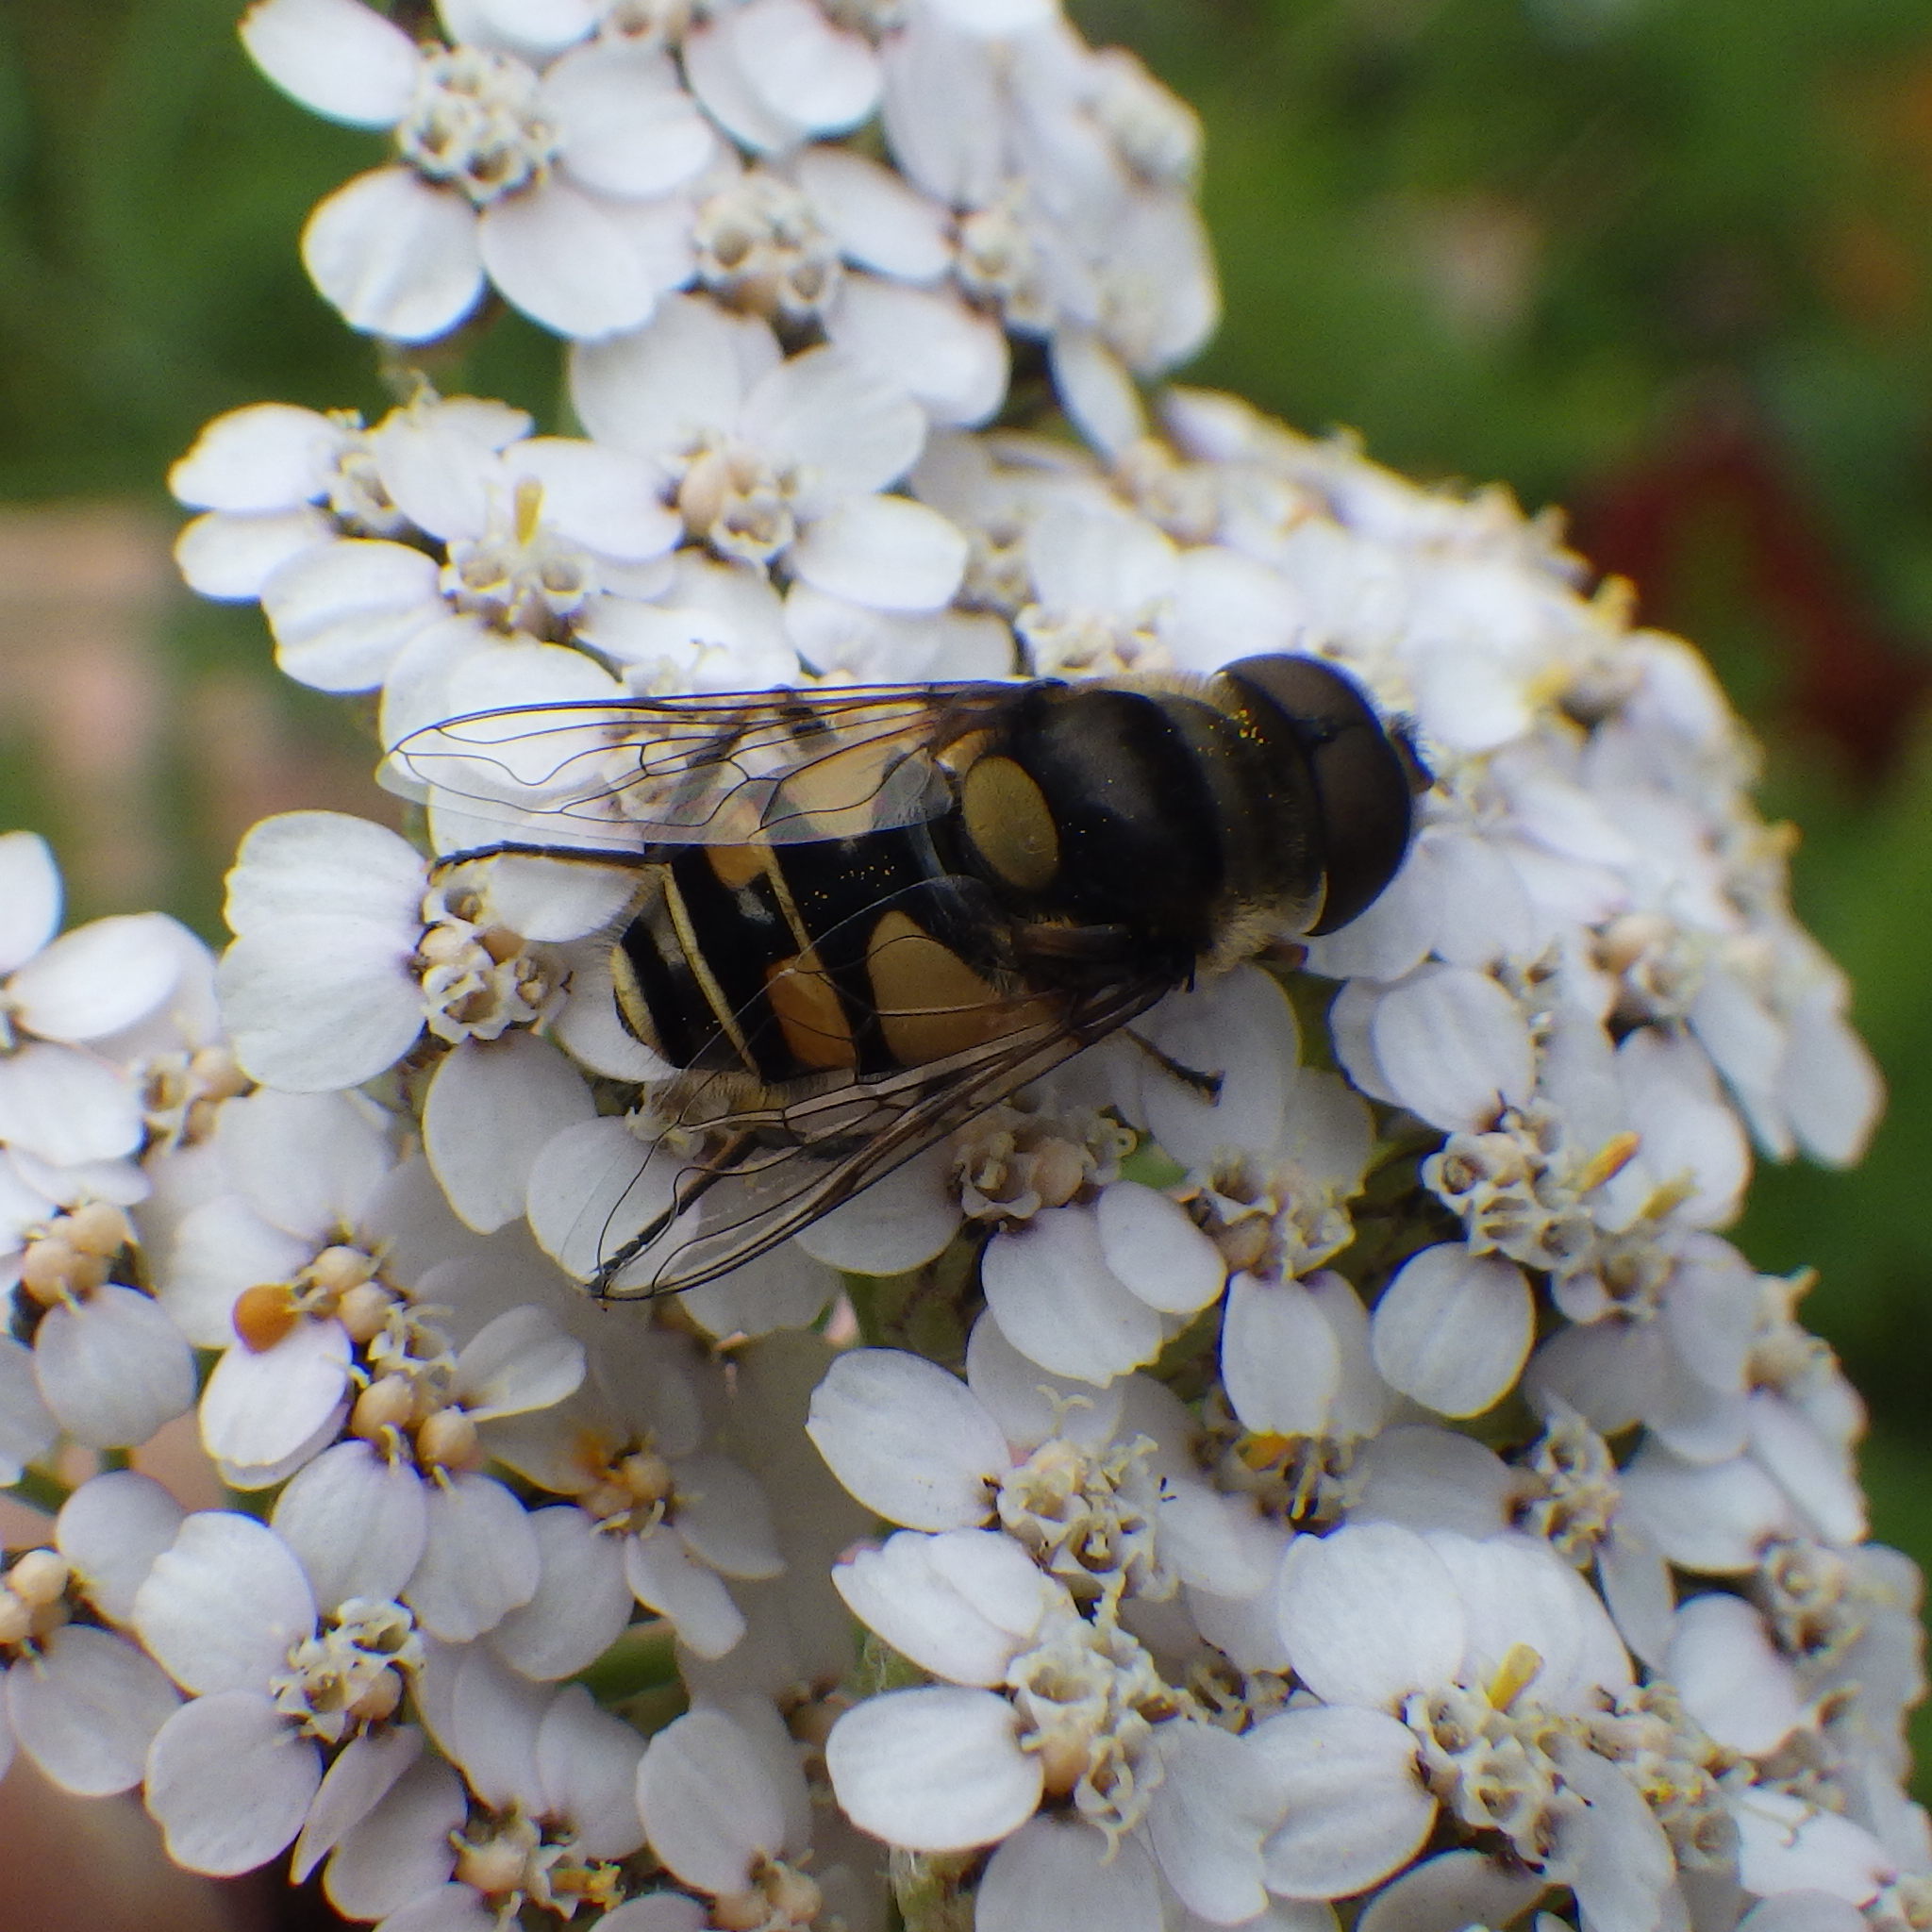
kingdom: Animalia
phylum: Arthropoda
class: Insecta
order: Diptera
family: Syrphidae
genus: Eristalis
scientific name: Eristalis transversa
